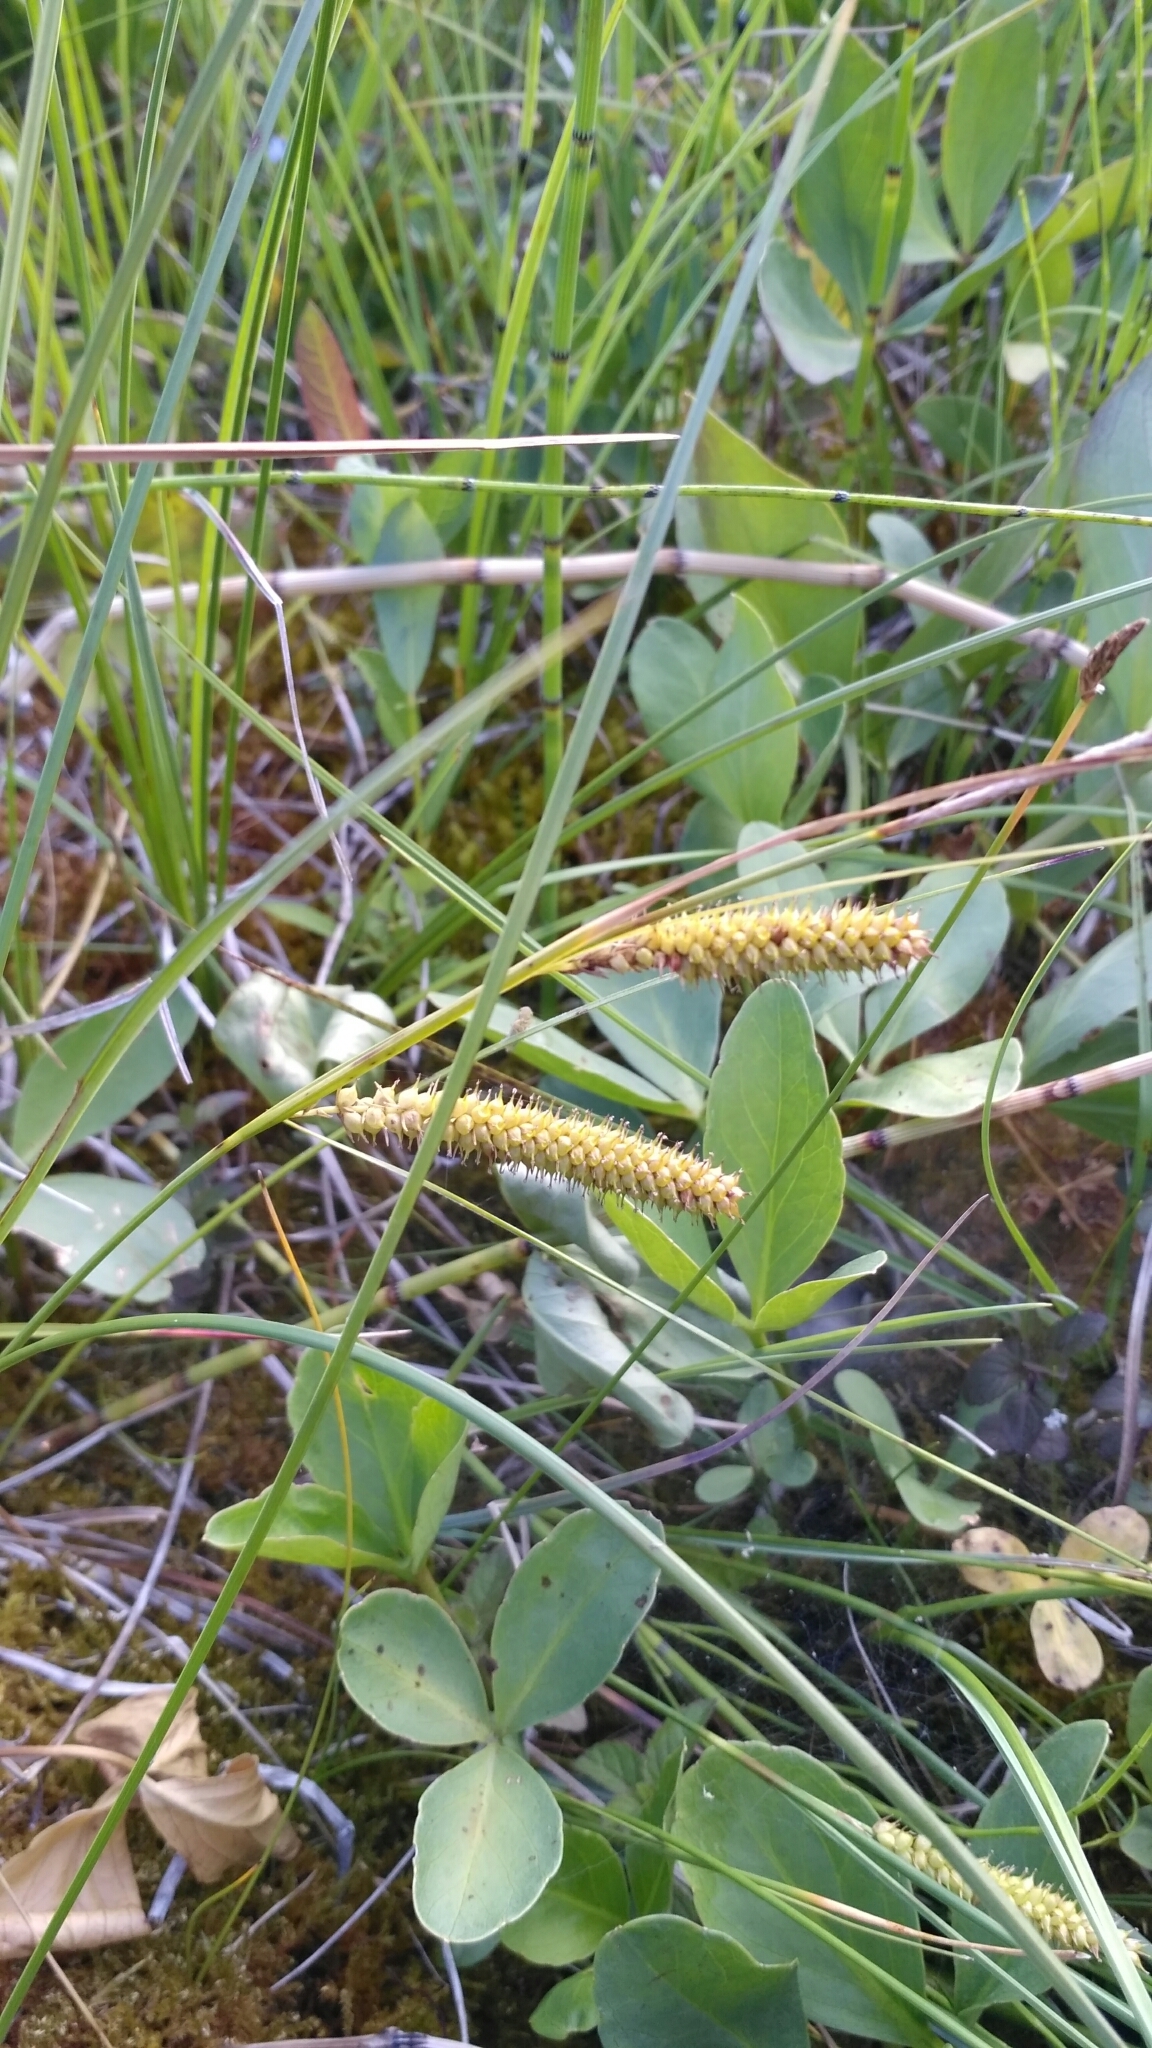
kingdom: Plantae
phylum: Tracheophyta
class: Liliopsida
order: Poales
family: Cyperaceae
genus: Carex
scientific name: Carex rostrata
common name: Bottle sedge
